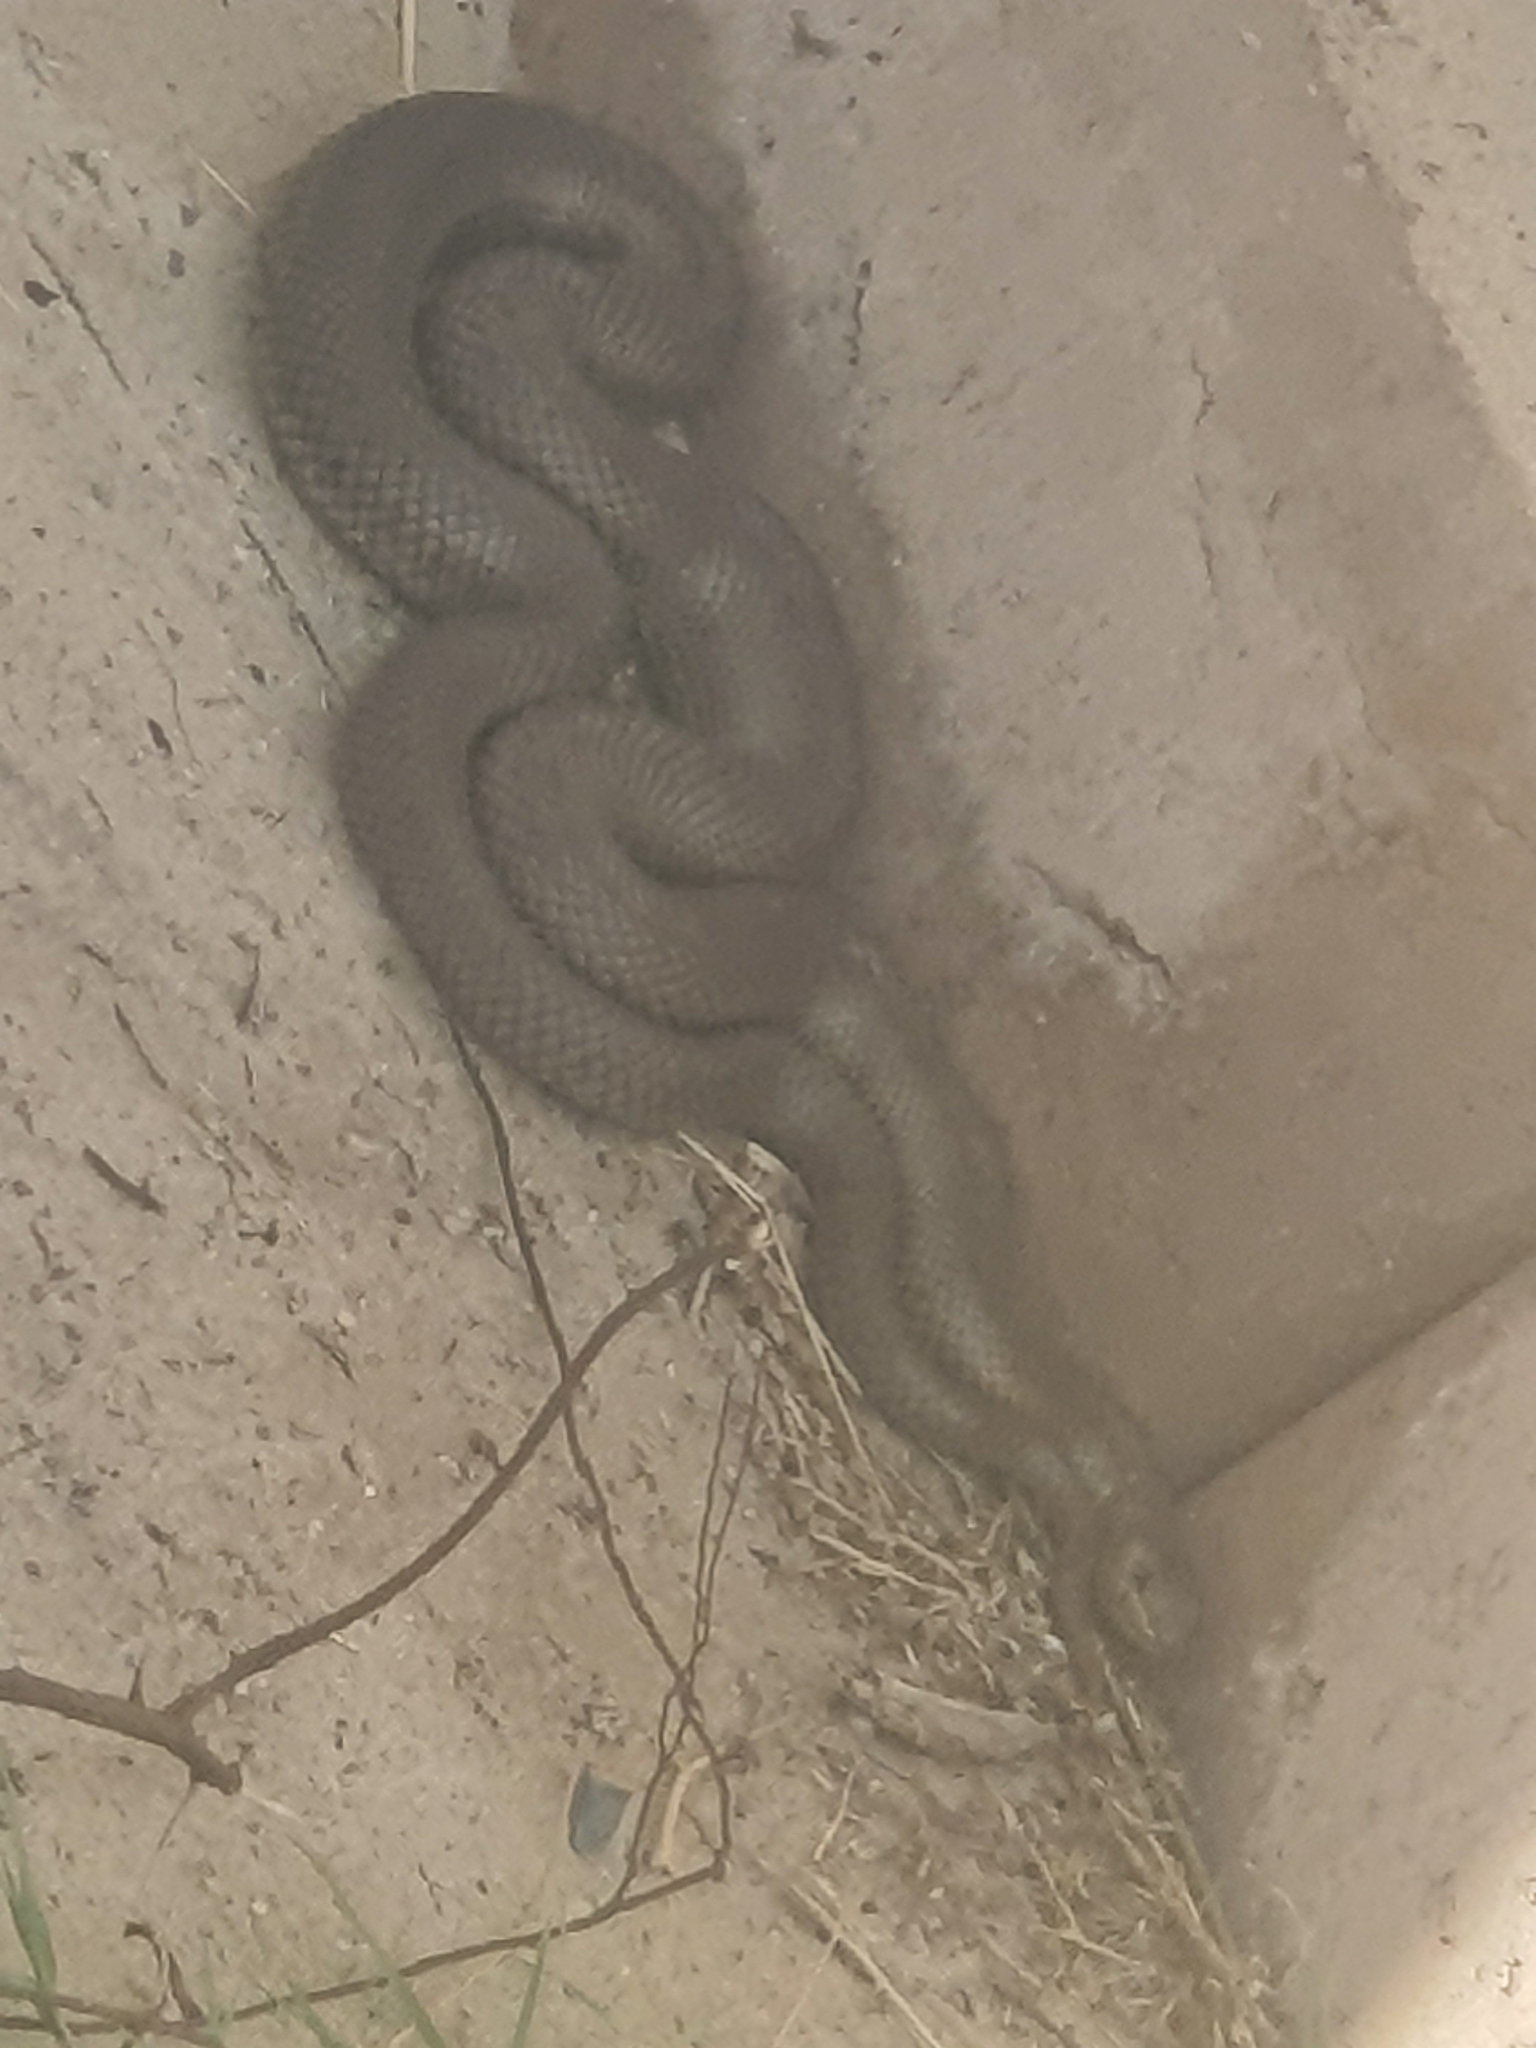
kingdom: Animalia
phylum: Chordata
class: Squamata
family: Pseudaspididae
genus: Pseudaspis
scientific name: Pseudaspis cana
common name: Mole snake
